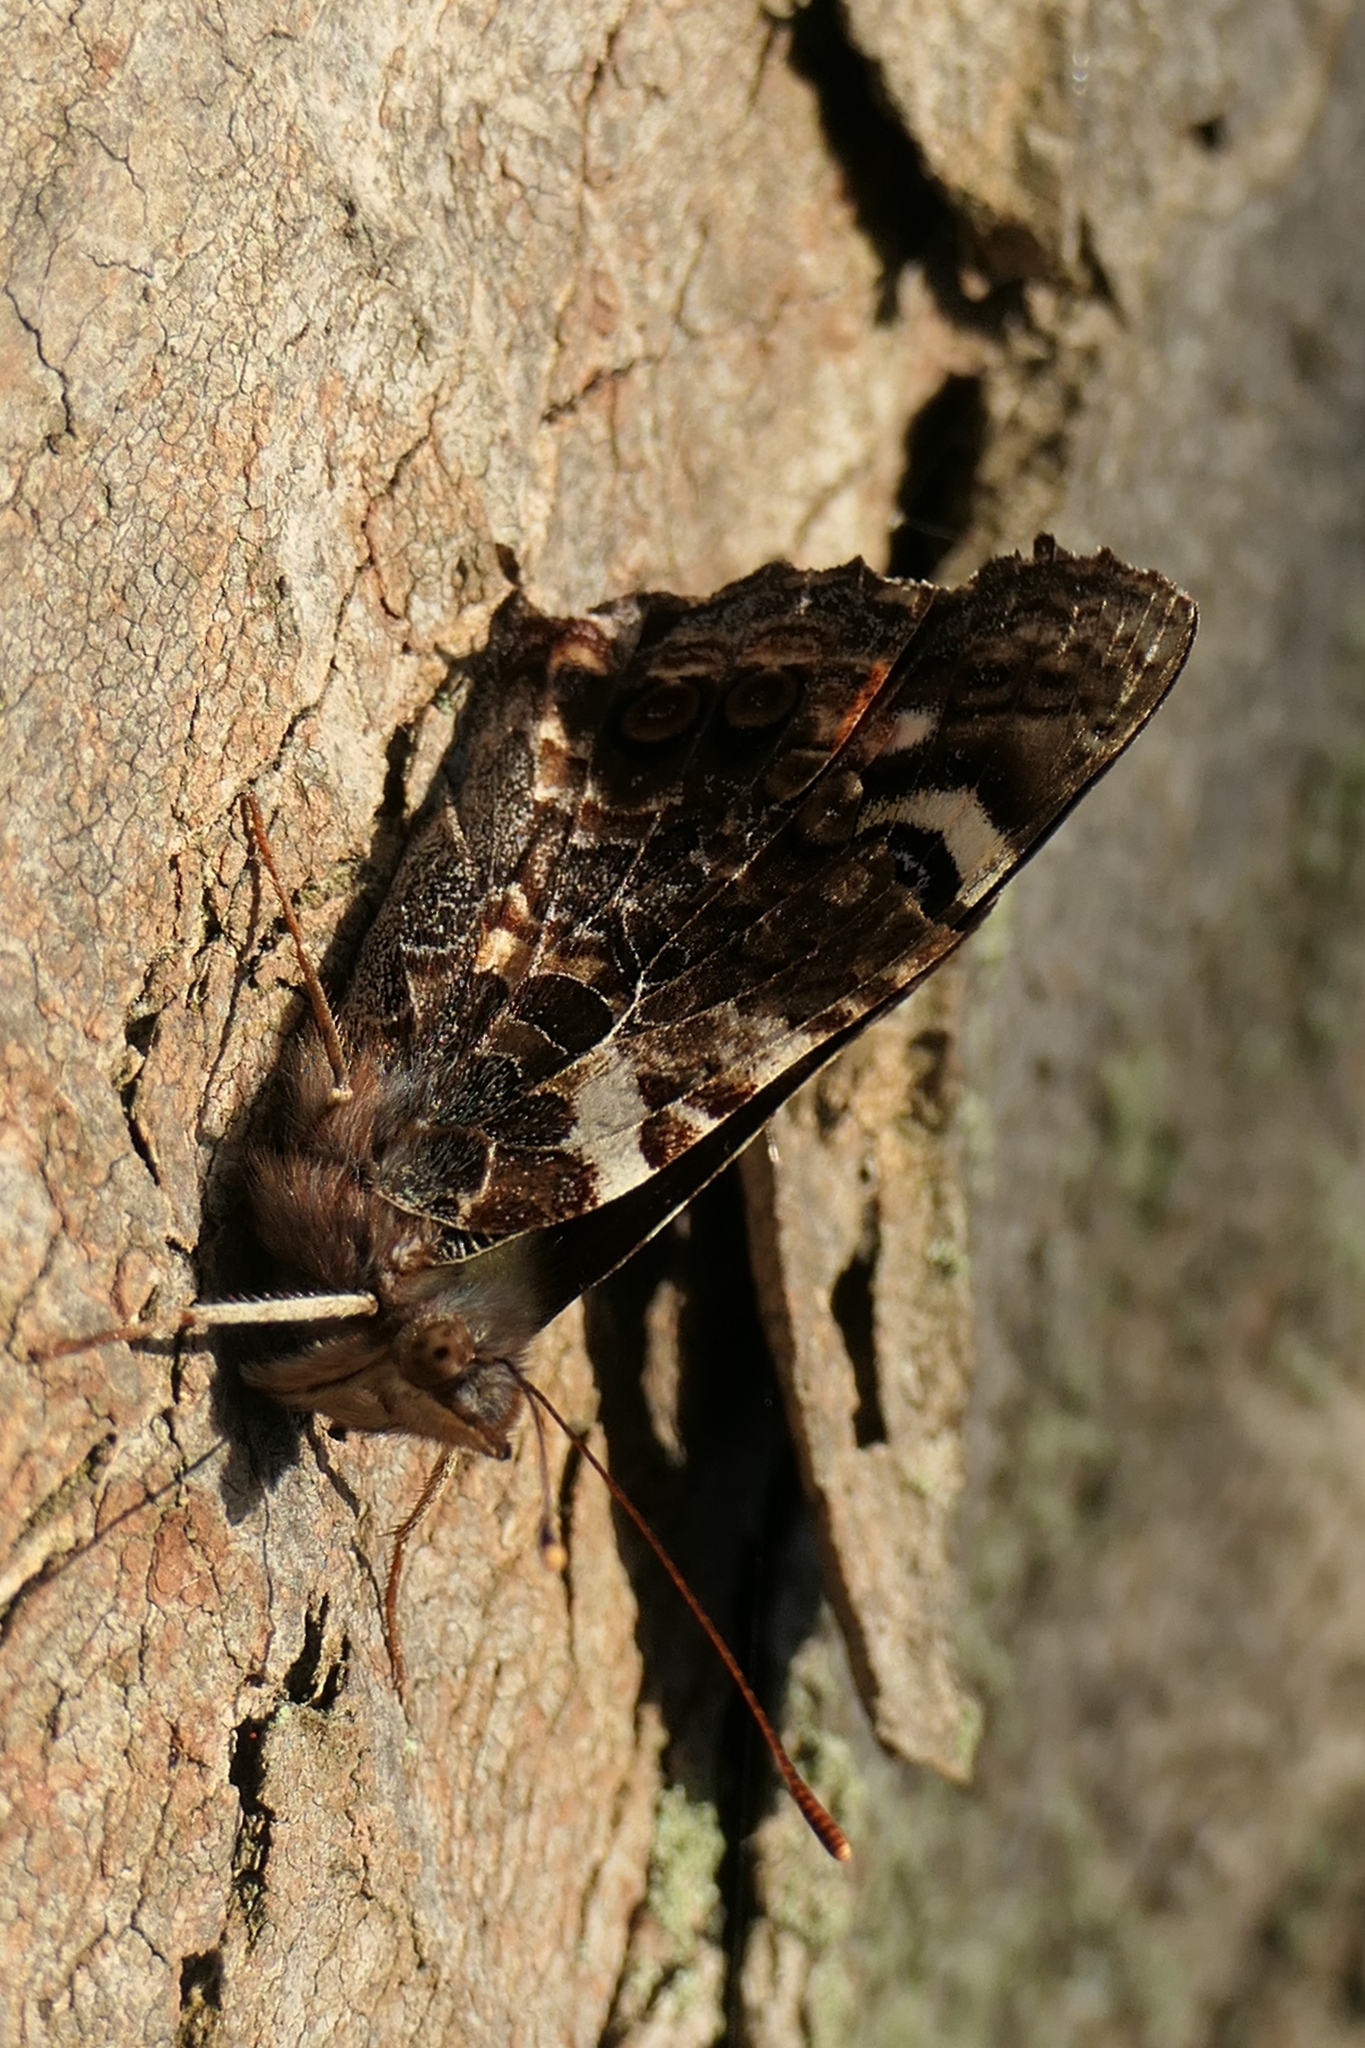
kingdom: Animalia
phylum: Arthropoda
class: Insecta
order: Lepidoptera
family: Nymphalidae
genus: Vanessa
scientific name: Vanessa gonerilla
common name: New zealand red admiral
